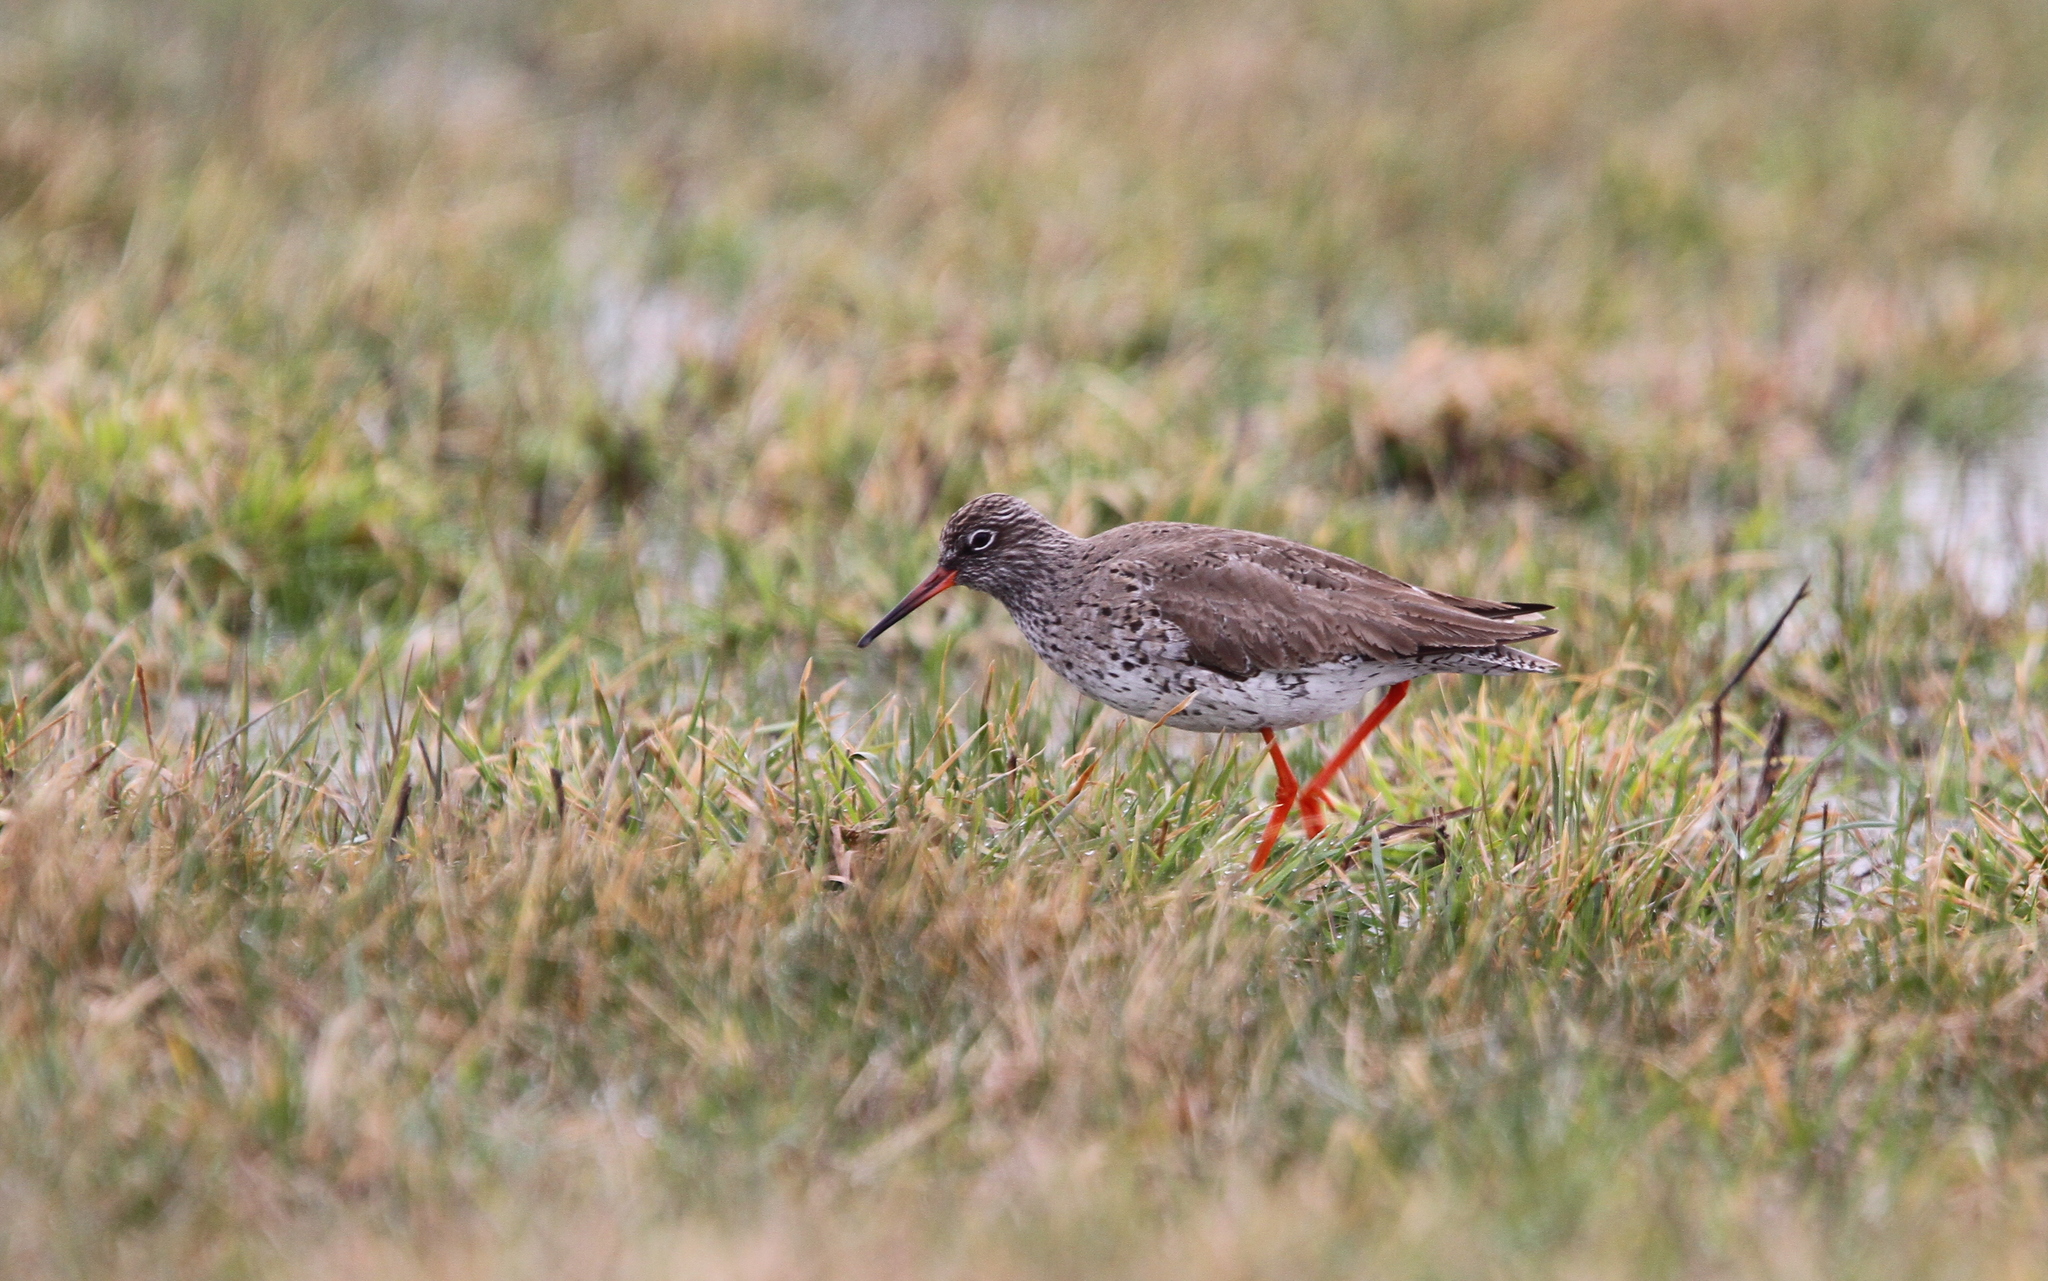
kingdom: Animalia
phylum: Chordata
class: Aves
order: Charadriiformes
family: Scolopacidae
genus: Tringa
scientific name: Tringa totanus
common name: Common redshank
